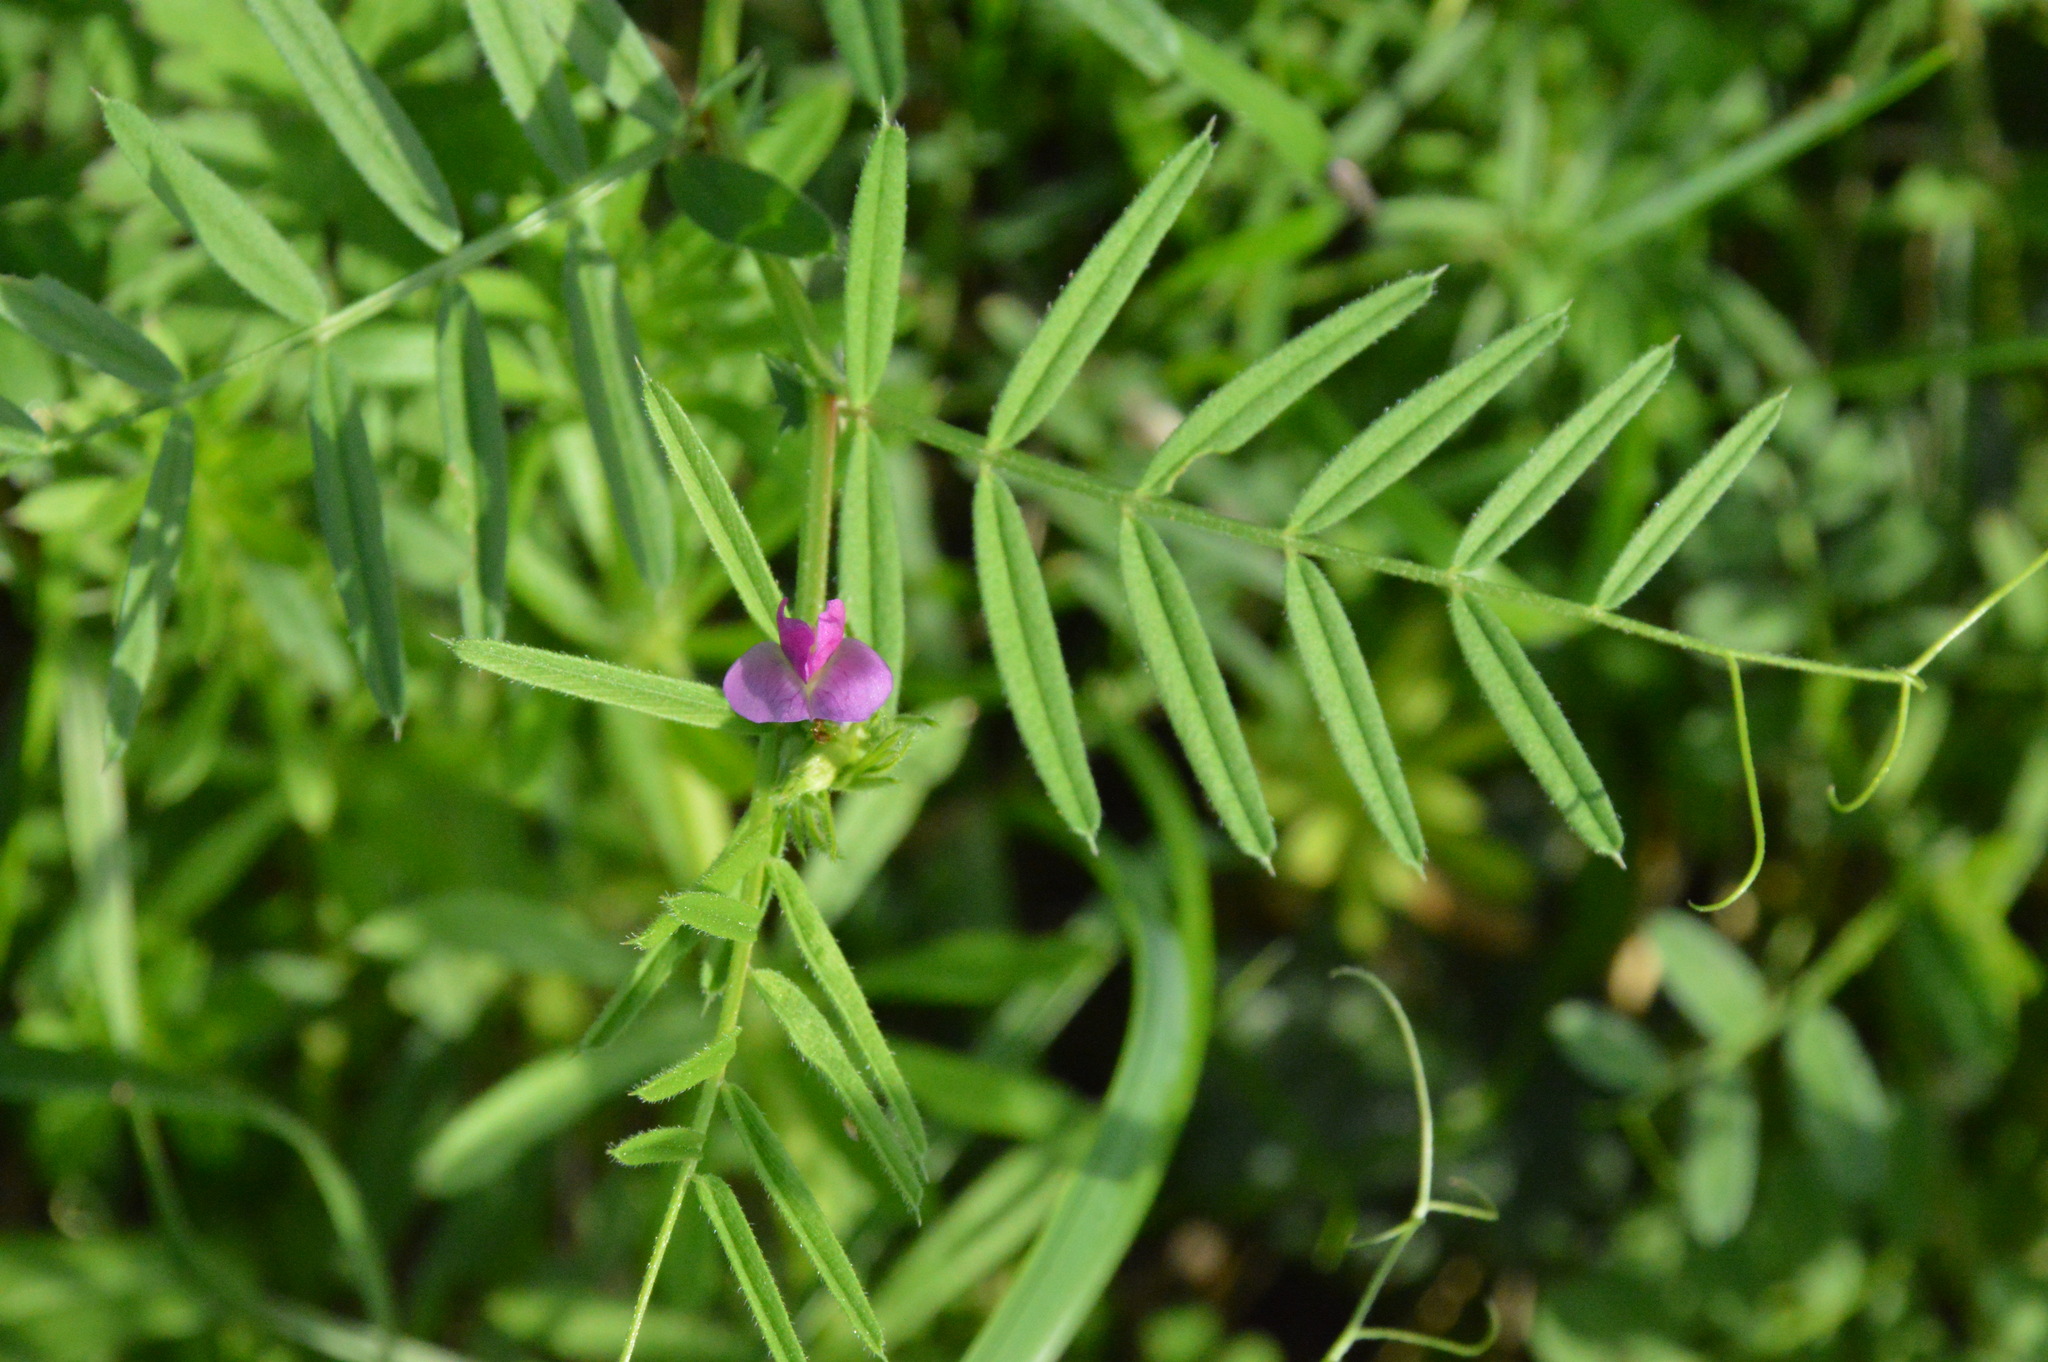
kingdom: Plantae
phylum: Tracheophyta
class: Magnoliopsida
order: Fabales
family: Fabaceae
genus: Vicia
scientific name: Vicia sativa
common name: Garden vetch
